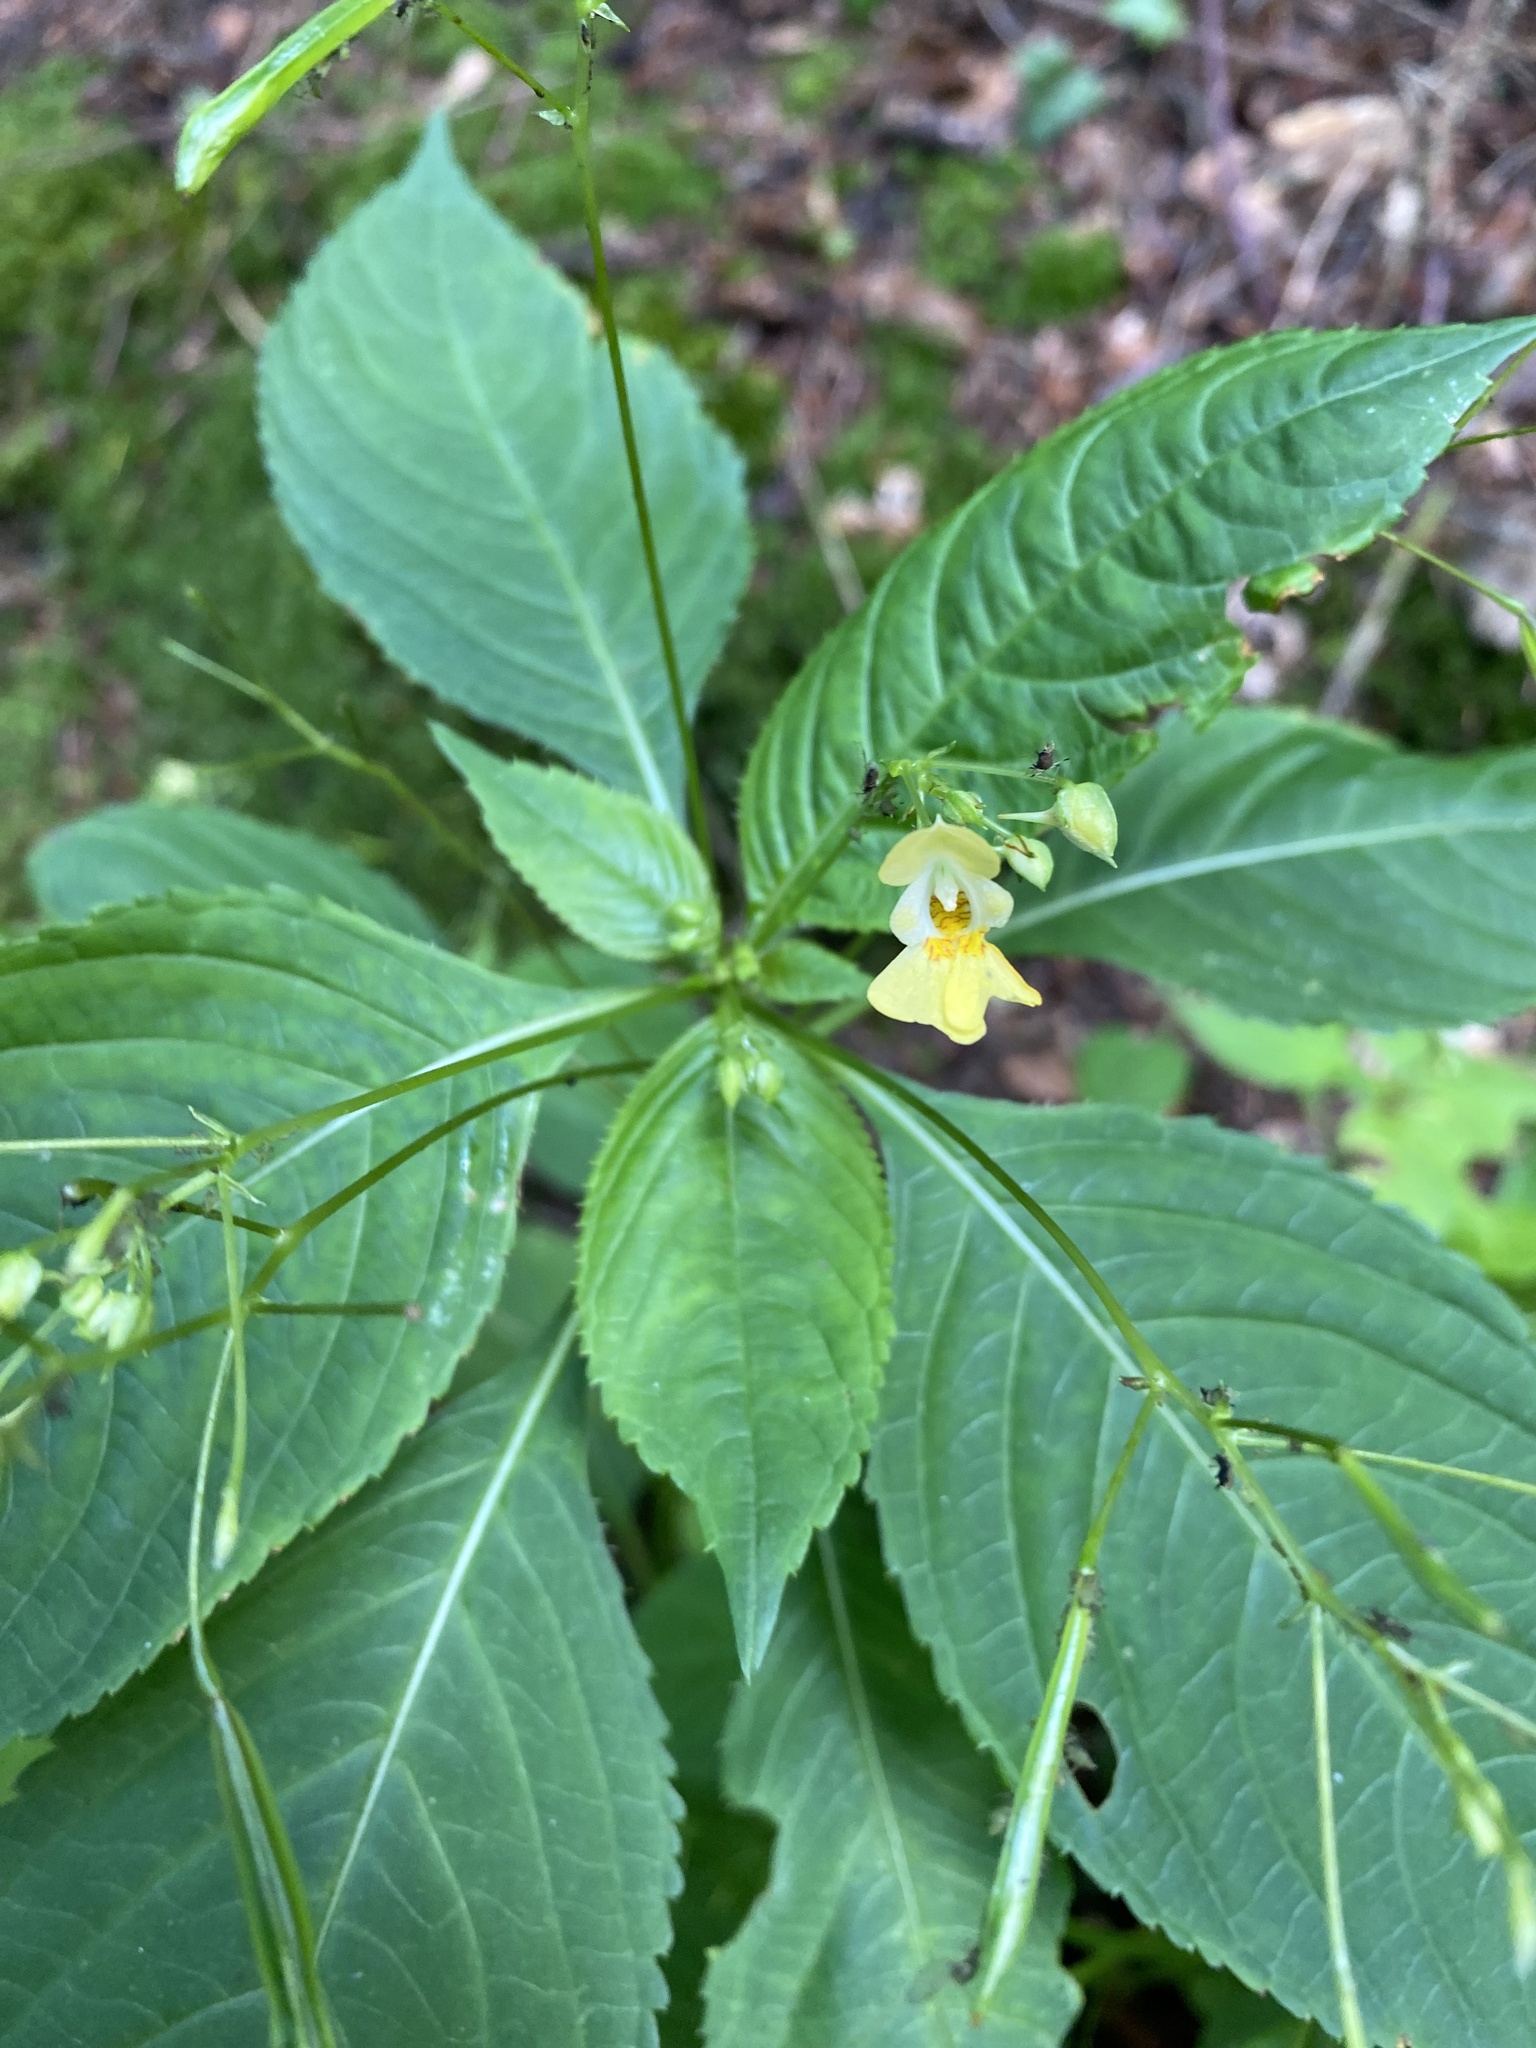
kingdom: Plantae
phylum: Tracheophyta
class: Magnoliopsida
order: Ericales
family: Balsaminaceae
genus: Impatiens
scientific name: Impatiens parviflora
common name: Small balsam
